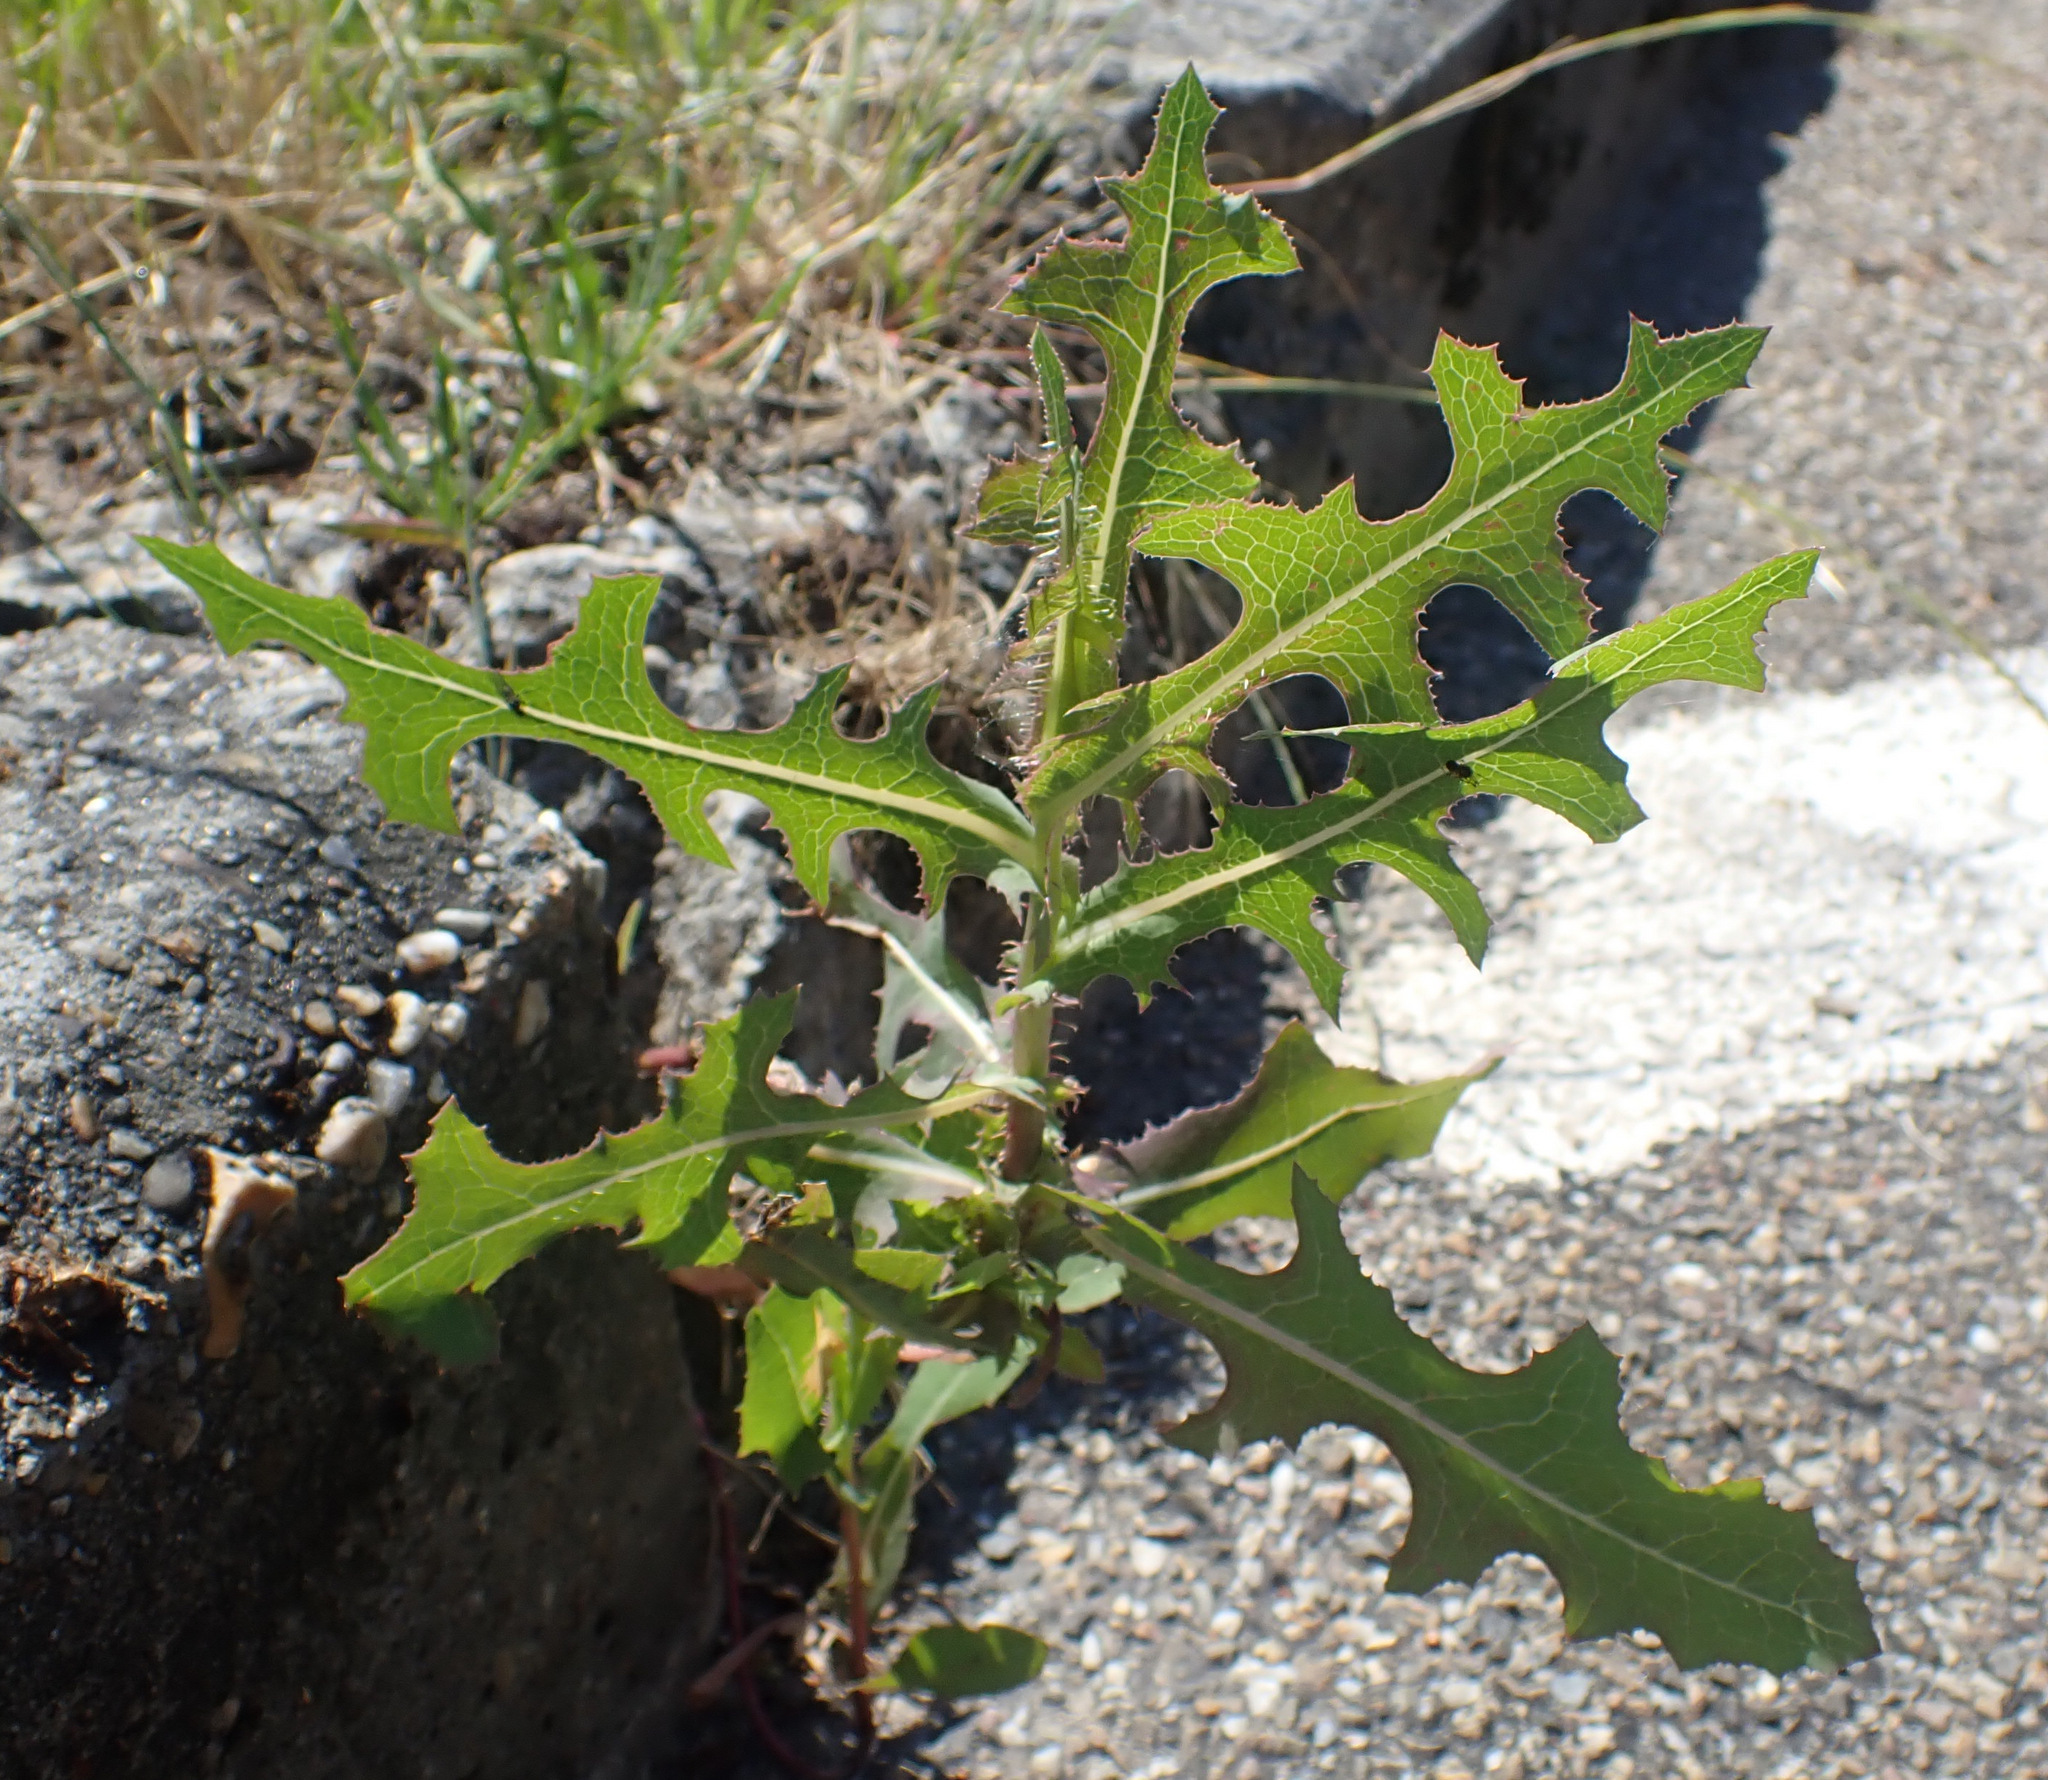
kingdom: Plantae
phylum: Tracheophyta
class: Magnoliopsida
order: Asterales
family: Asteraceae
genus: Lactuca
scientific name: Lactuca serriola
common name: Prickly lettuce
